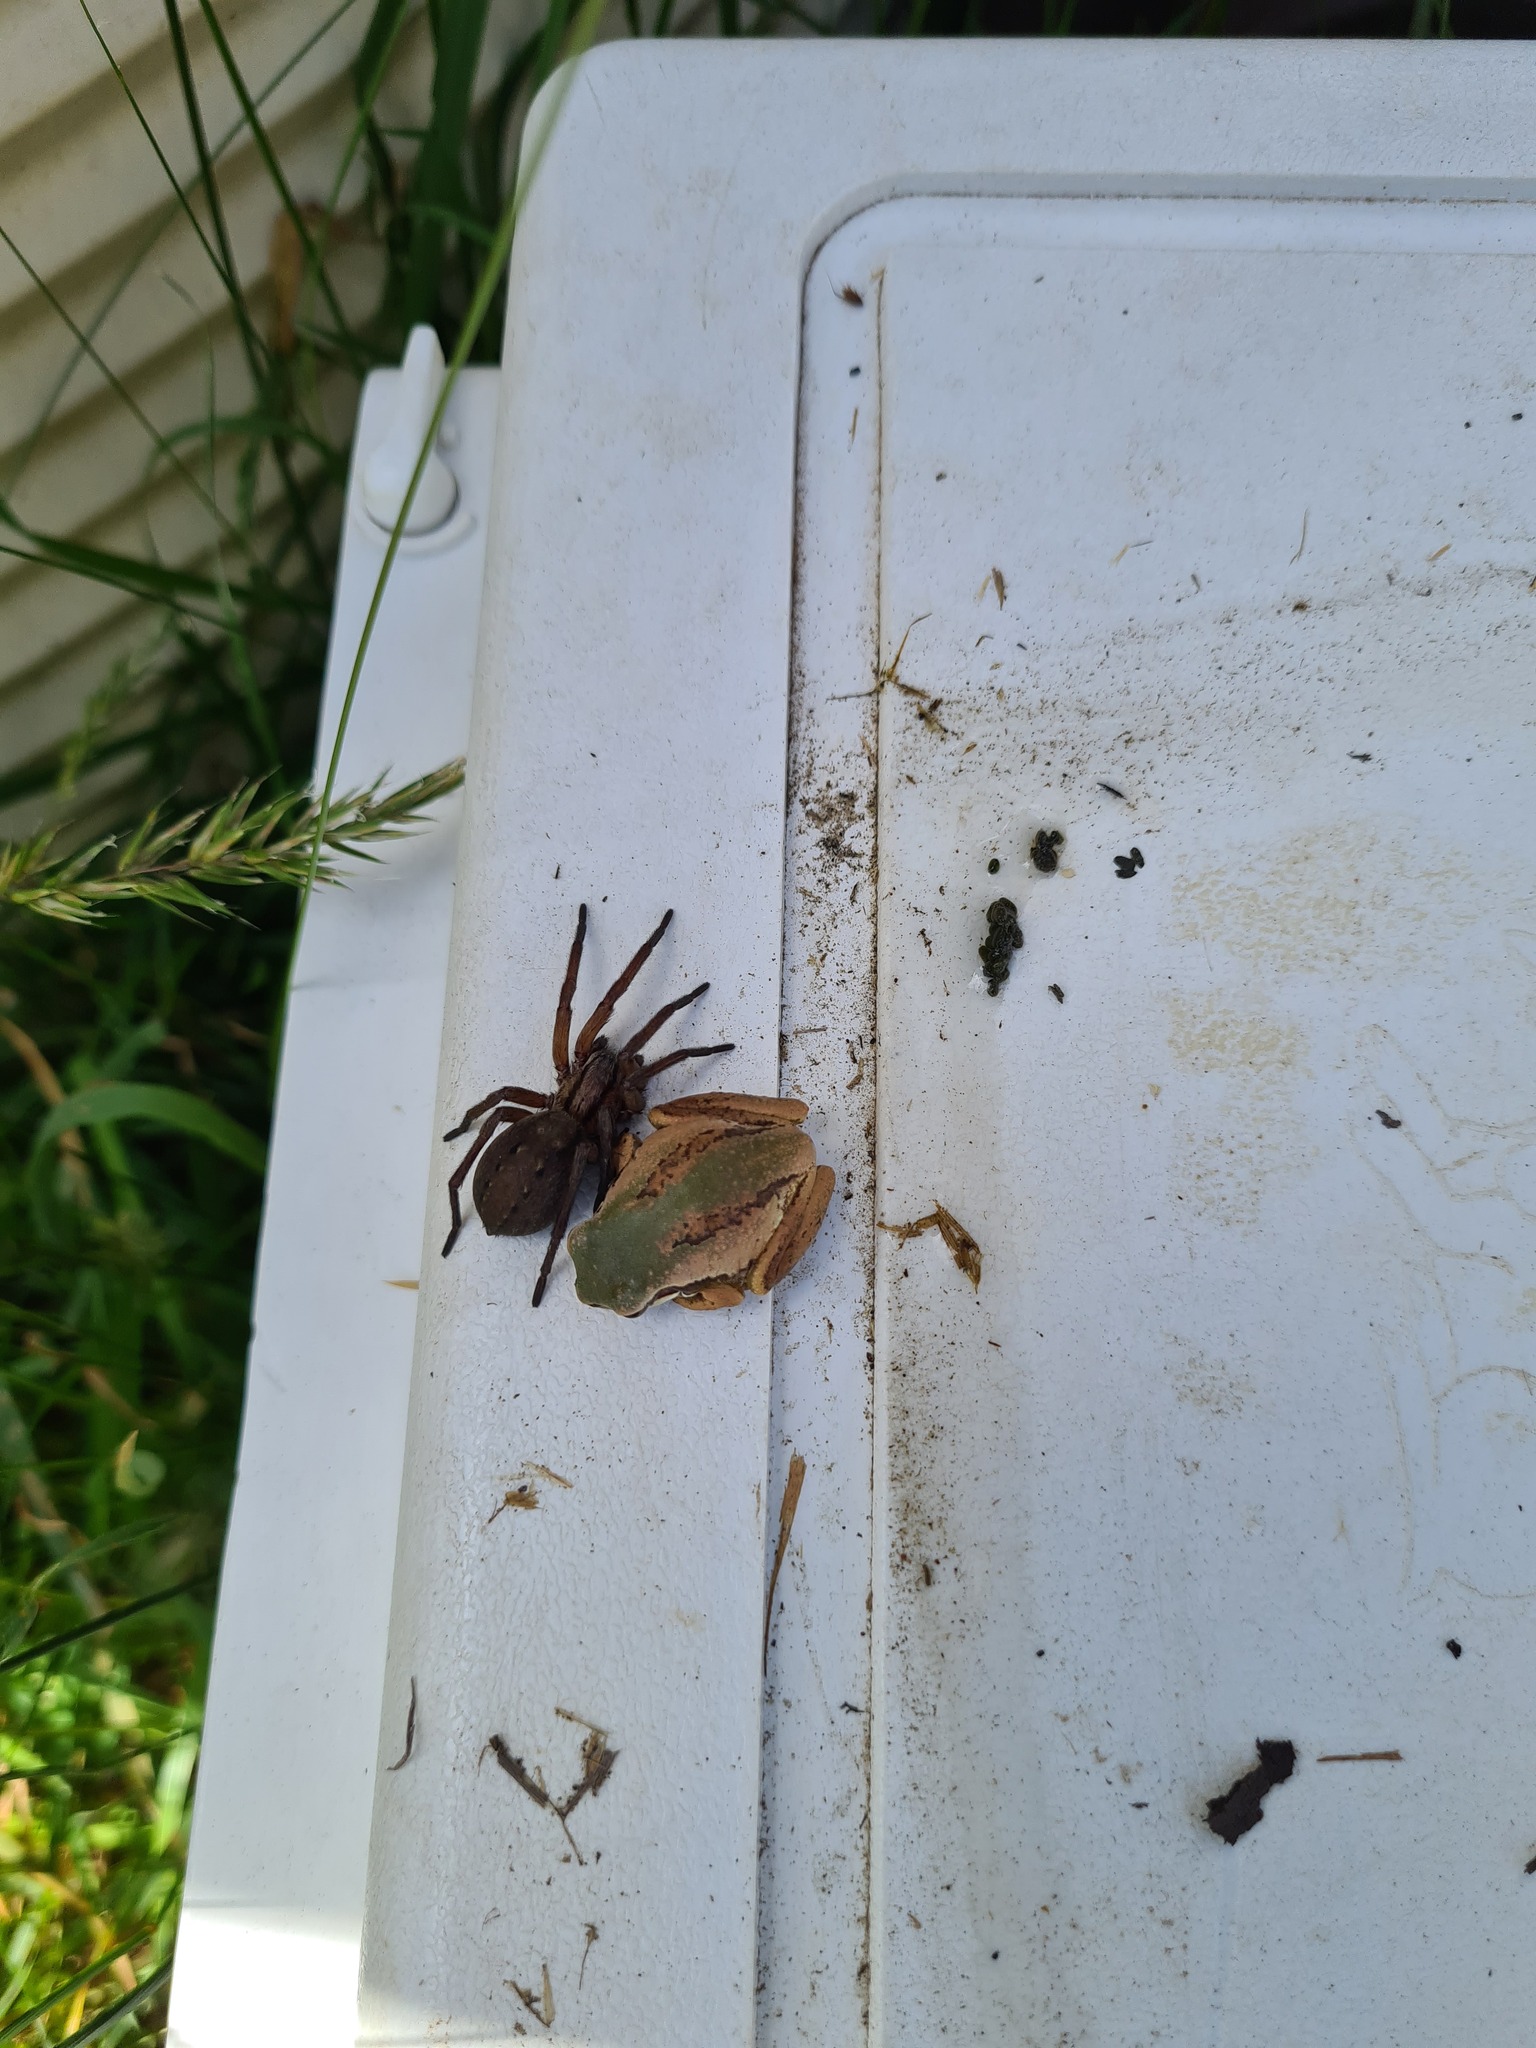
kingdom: Animalia
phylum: Chordata
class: Amphibia
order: Anura
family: Pelodryadidae
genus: Litoria
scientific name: Litoria ewingii
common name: Southern brown tree frog
